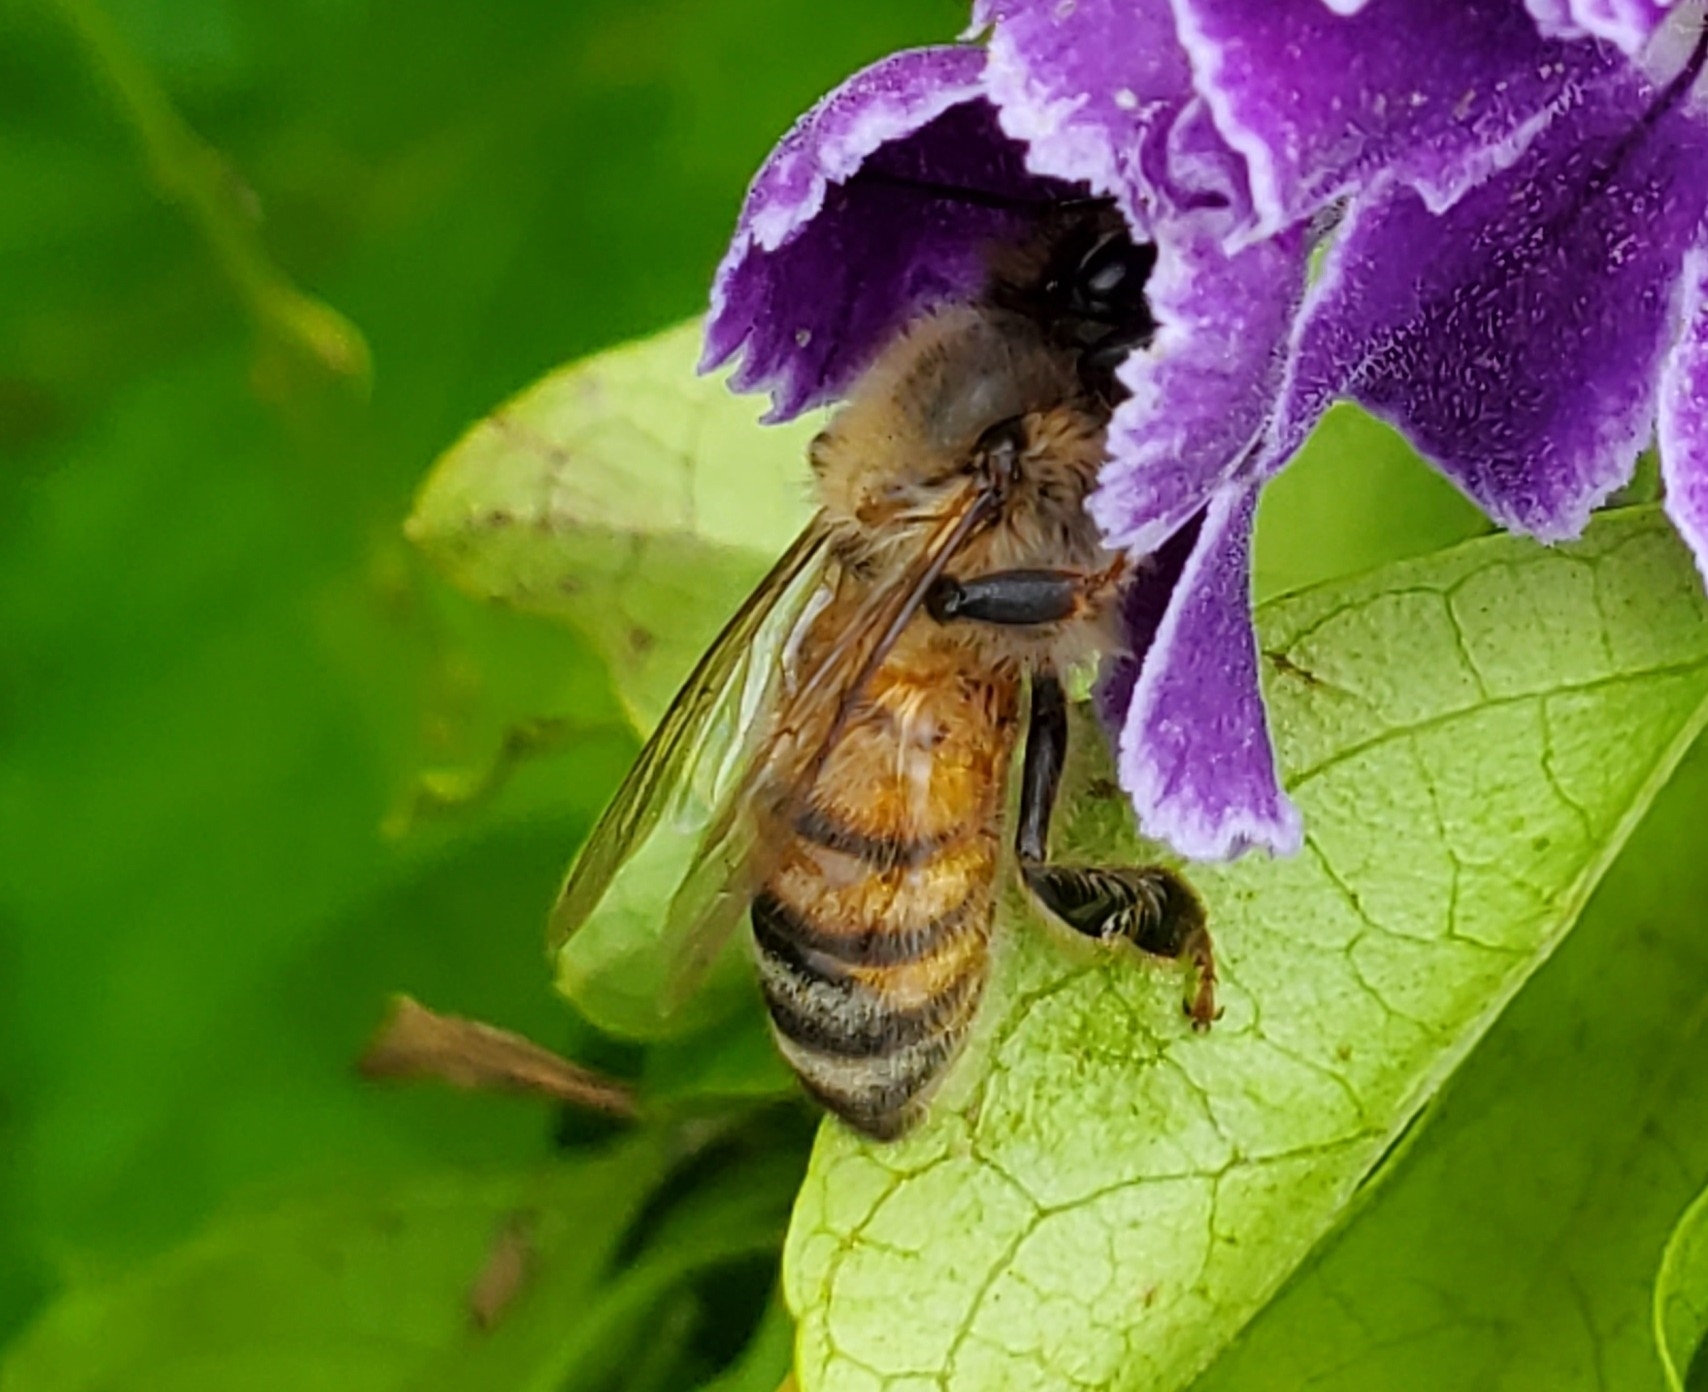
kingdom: Animalia
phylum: Arthropoda
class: Insecta
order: Hymenoptera
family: Apidae
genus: Apis
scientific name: Apis mellifera
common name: Honey bee
